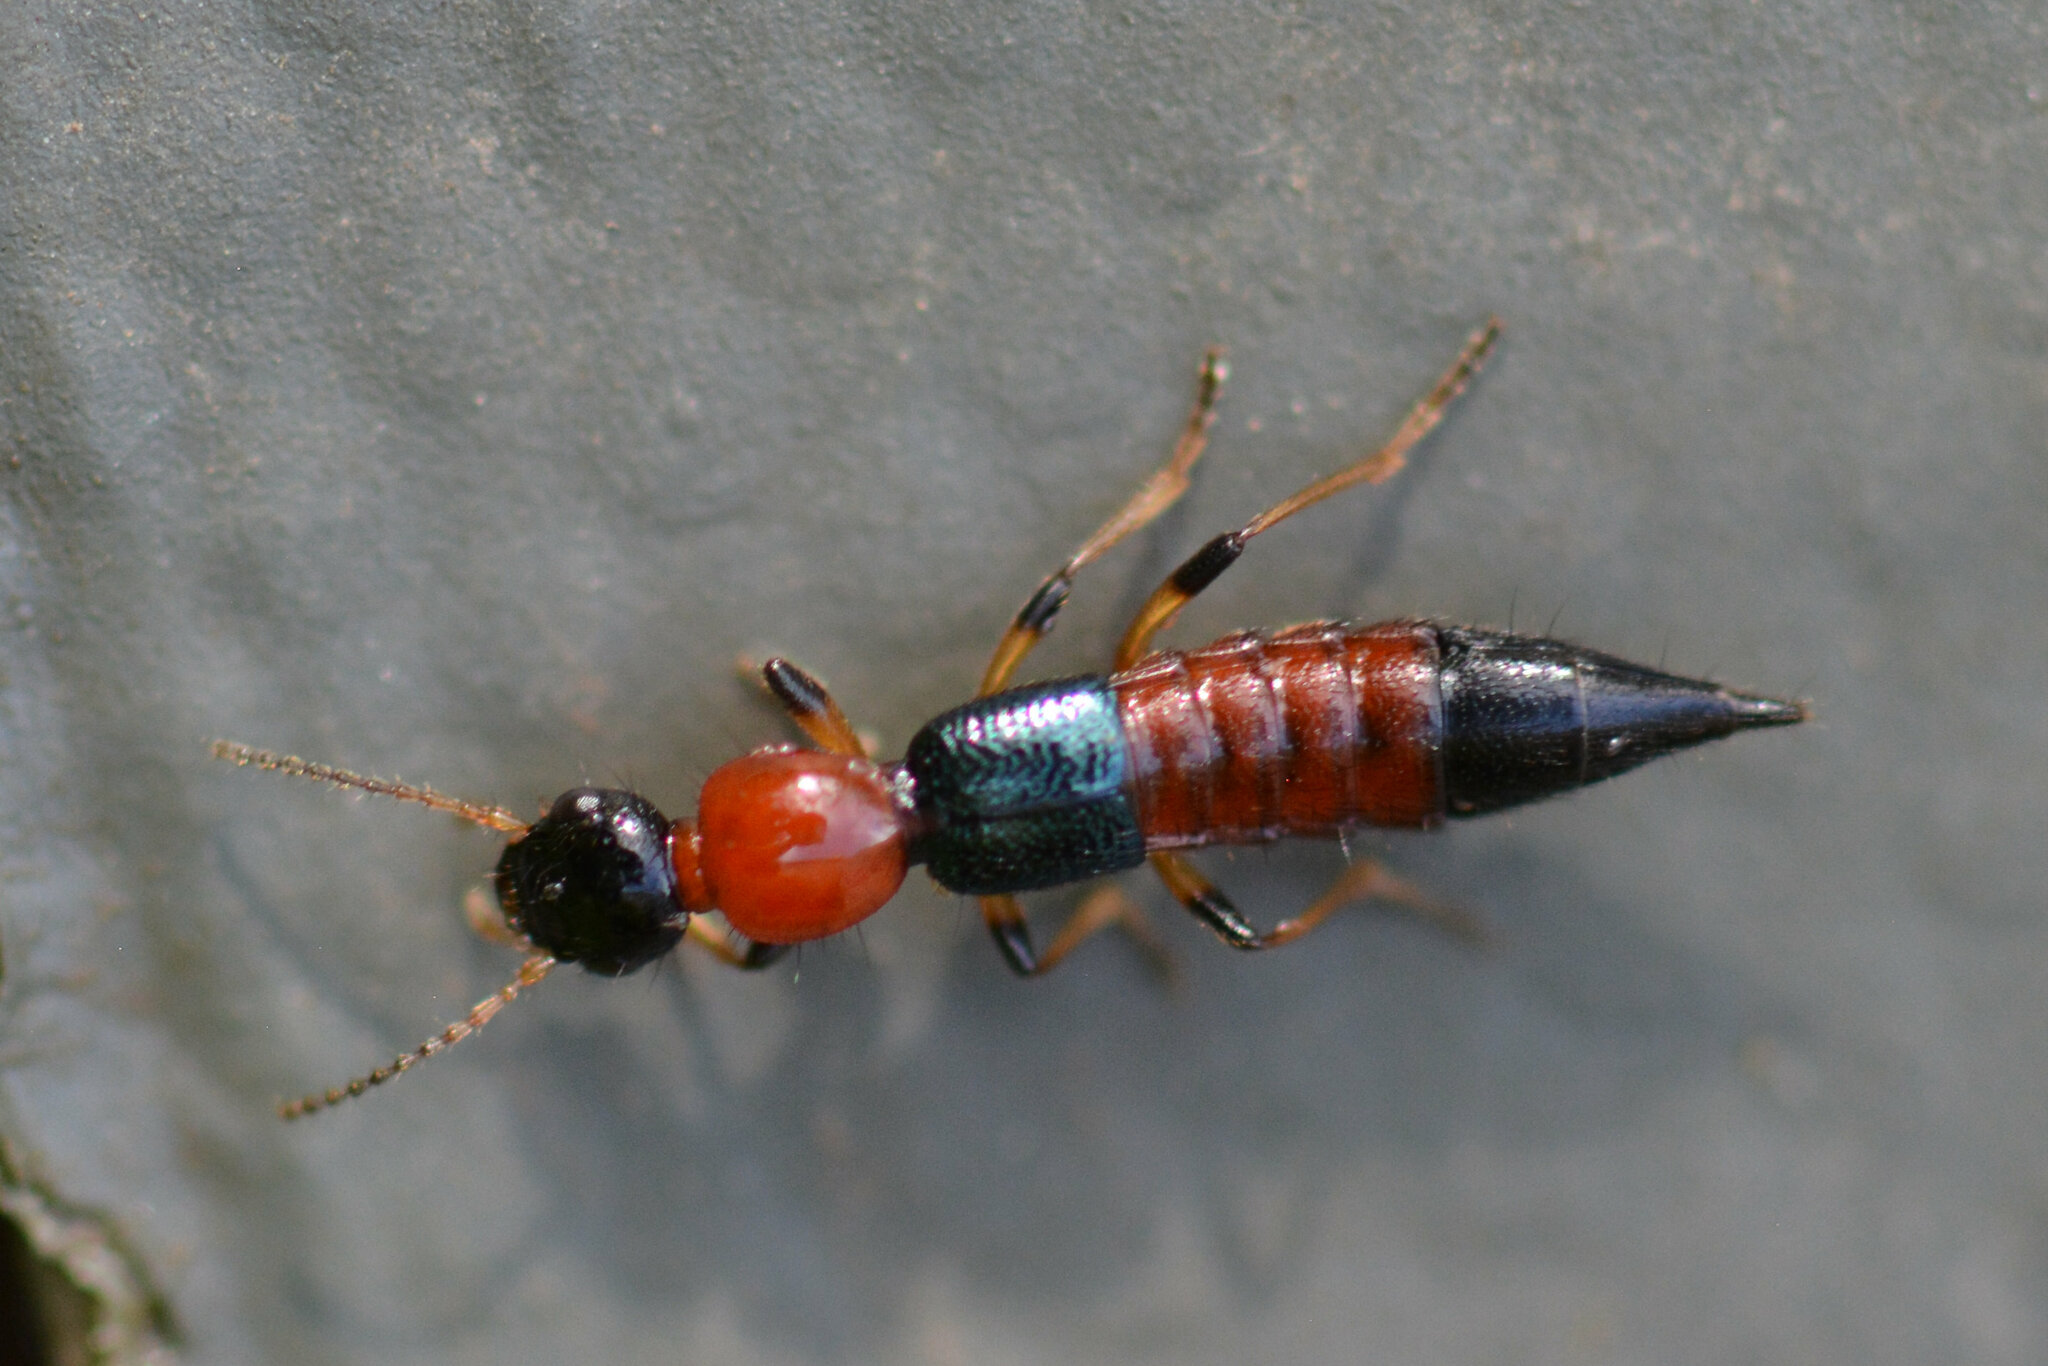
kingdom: Animalia
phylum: Arthropoda
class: Insecta
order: Coleoptera
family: Staphylinidae
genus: Paederus
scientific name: Paederus littoralis
